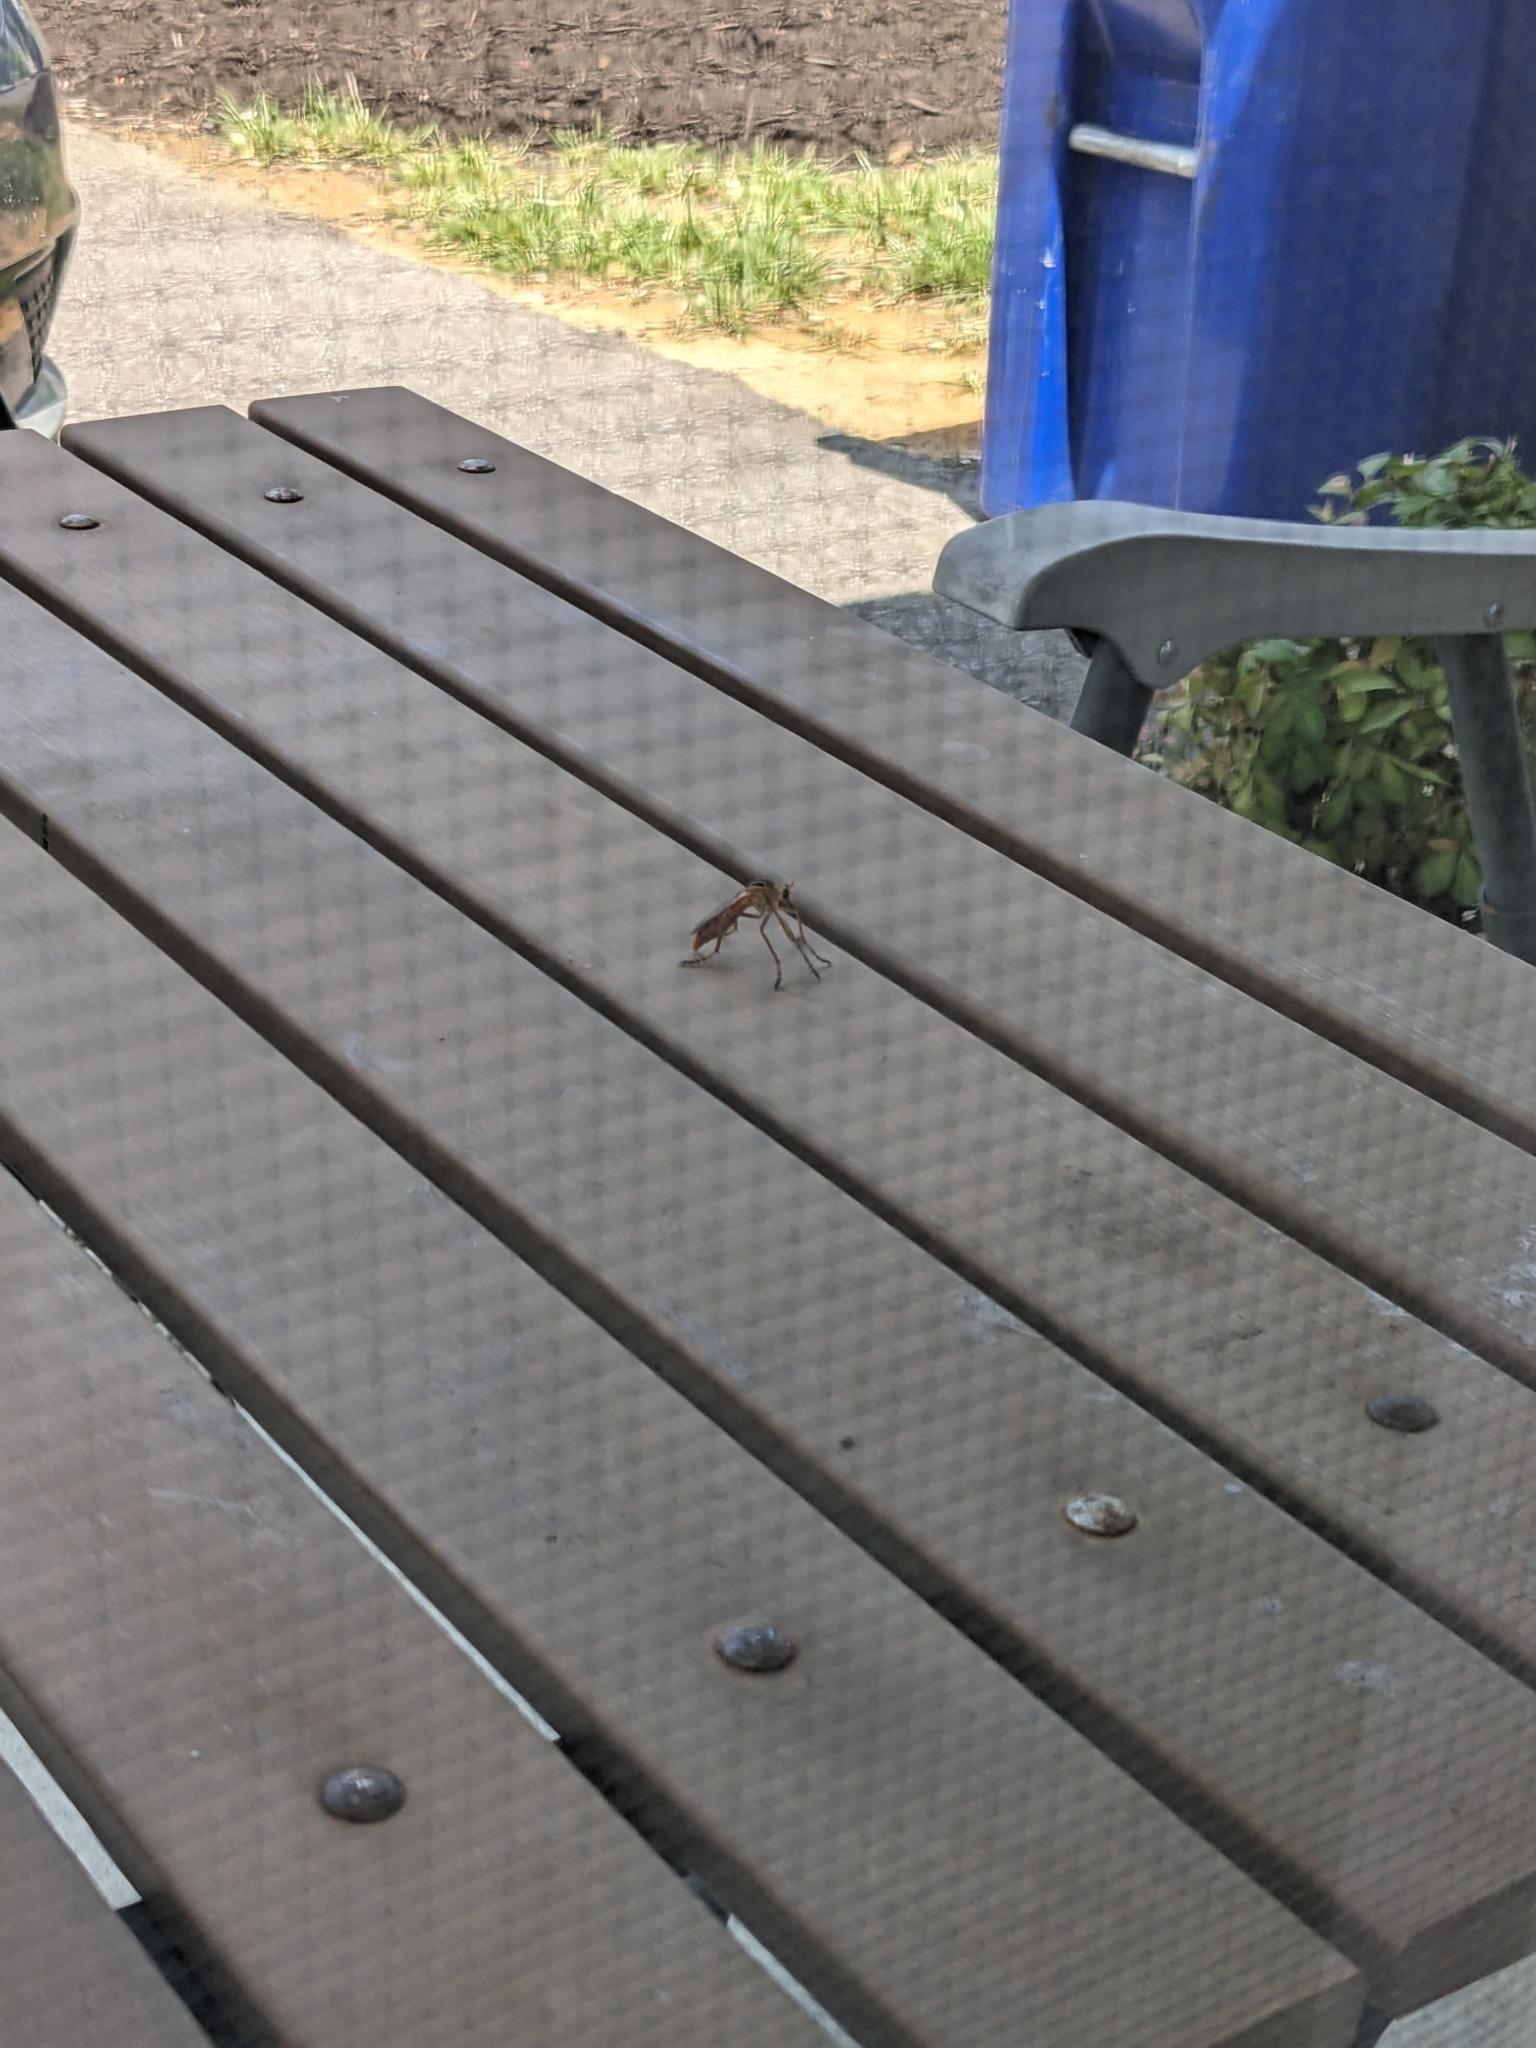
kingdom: Animalia
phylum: Arthropoda
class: Insecta
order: Diptera
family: Asilidae
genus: Diogmites
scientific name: Diogmites neoternatus
